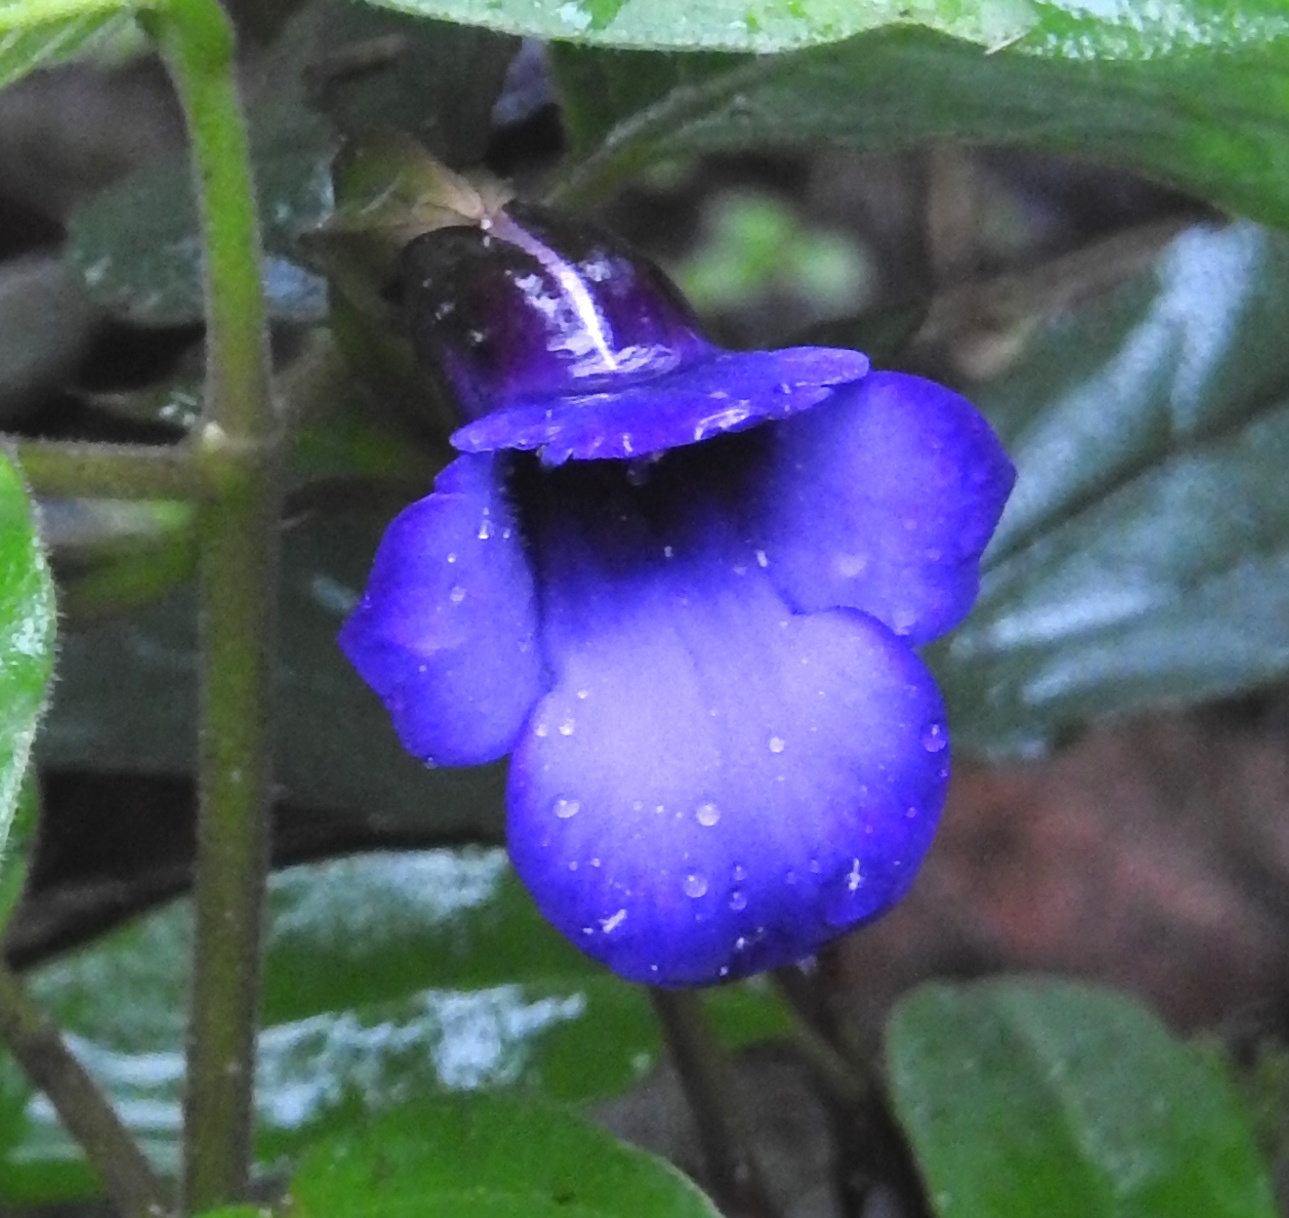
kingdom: Plantae
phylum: Tracheophyta
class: Magnoliopsida
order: Lamiales
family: Linderniaceae
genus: Torenia
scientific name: Torenia asiatica
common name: Wishbone flower
